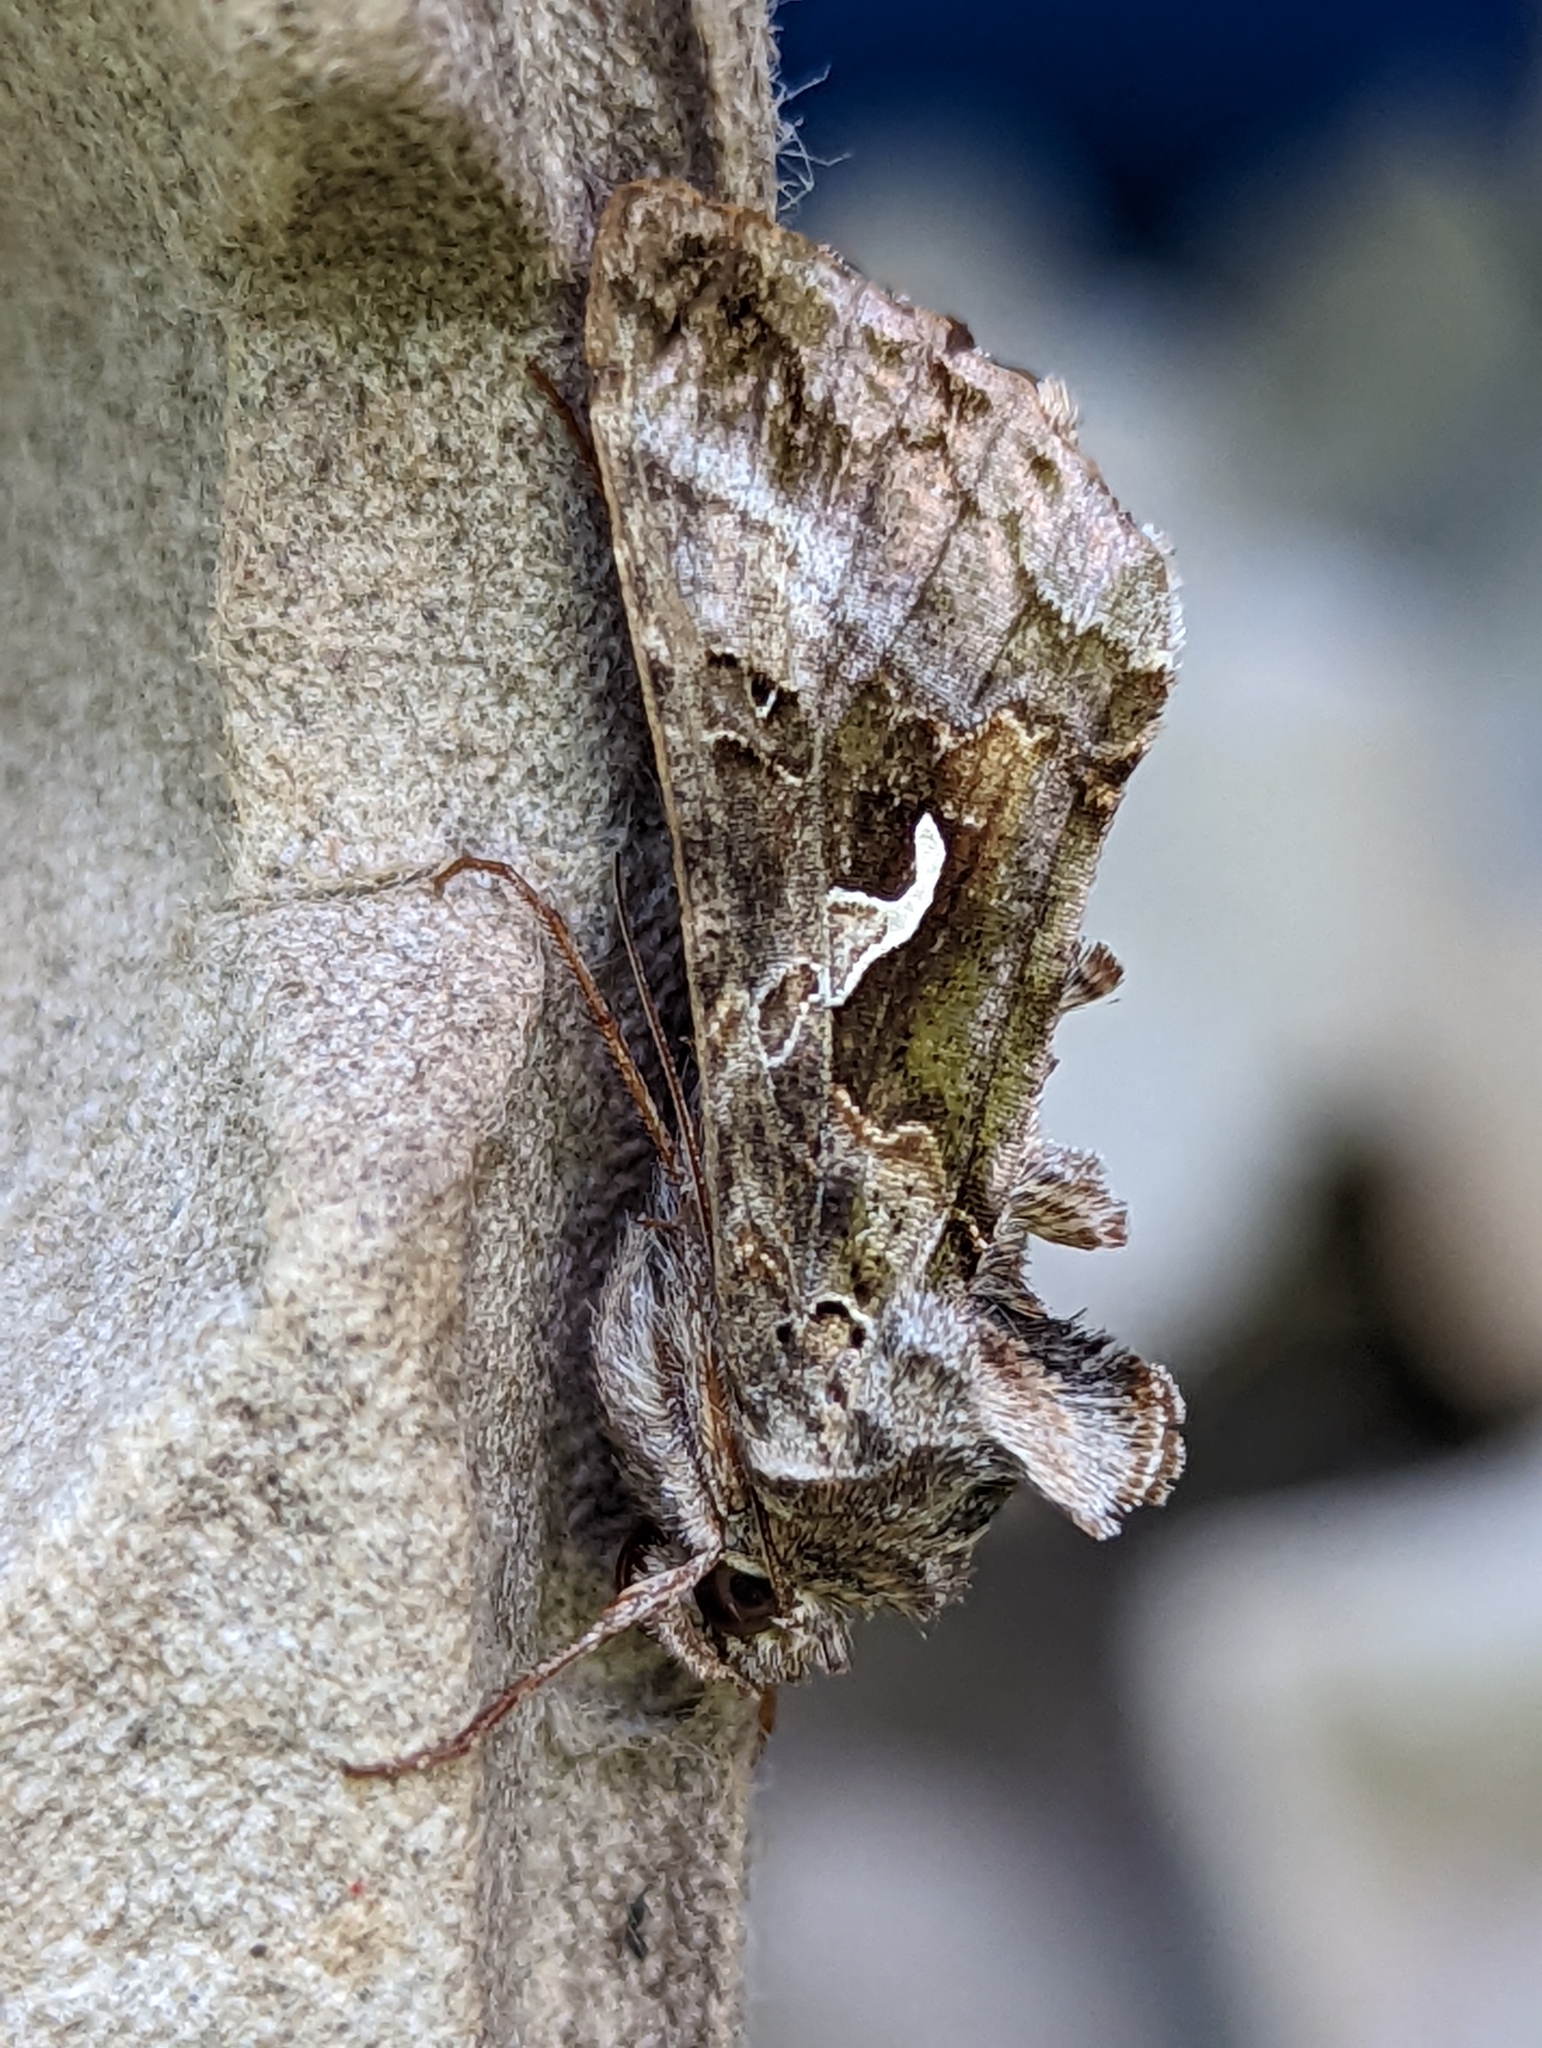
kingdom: Animalia
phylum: Arthropoda
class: Insecta
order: Lepidoptera
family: Noctuidae
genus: Autographa
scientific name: Autographa gamma
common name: Silver y
